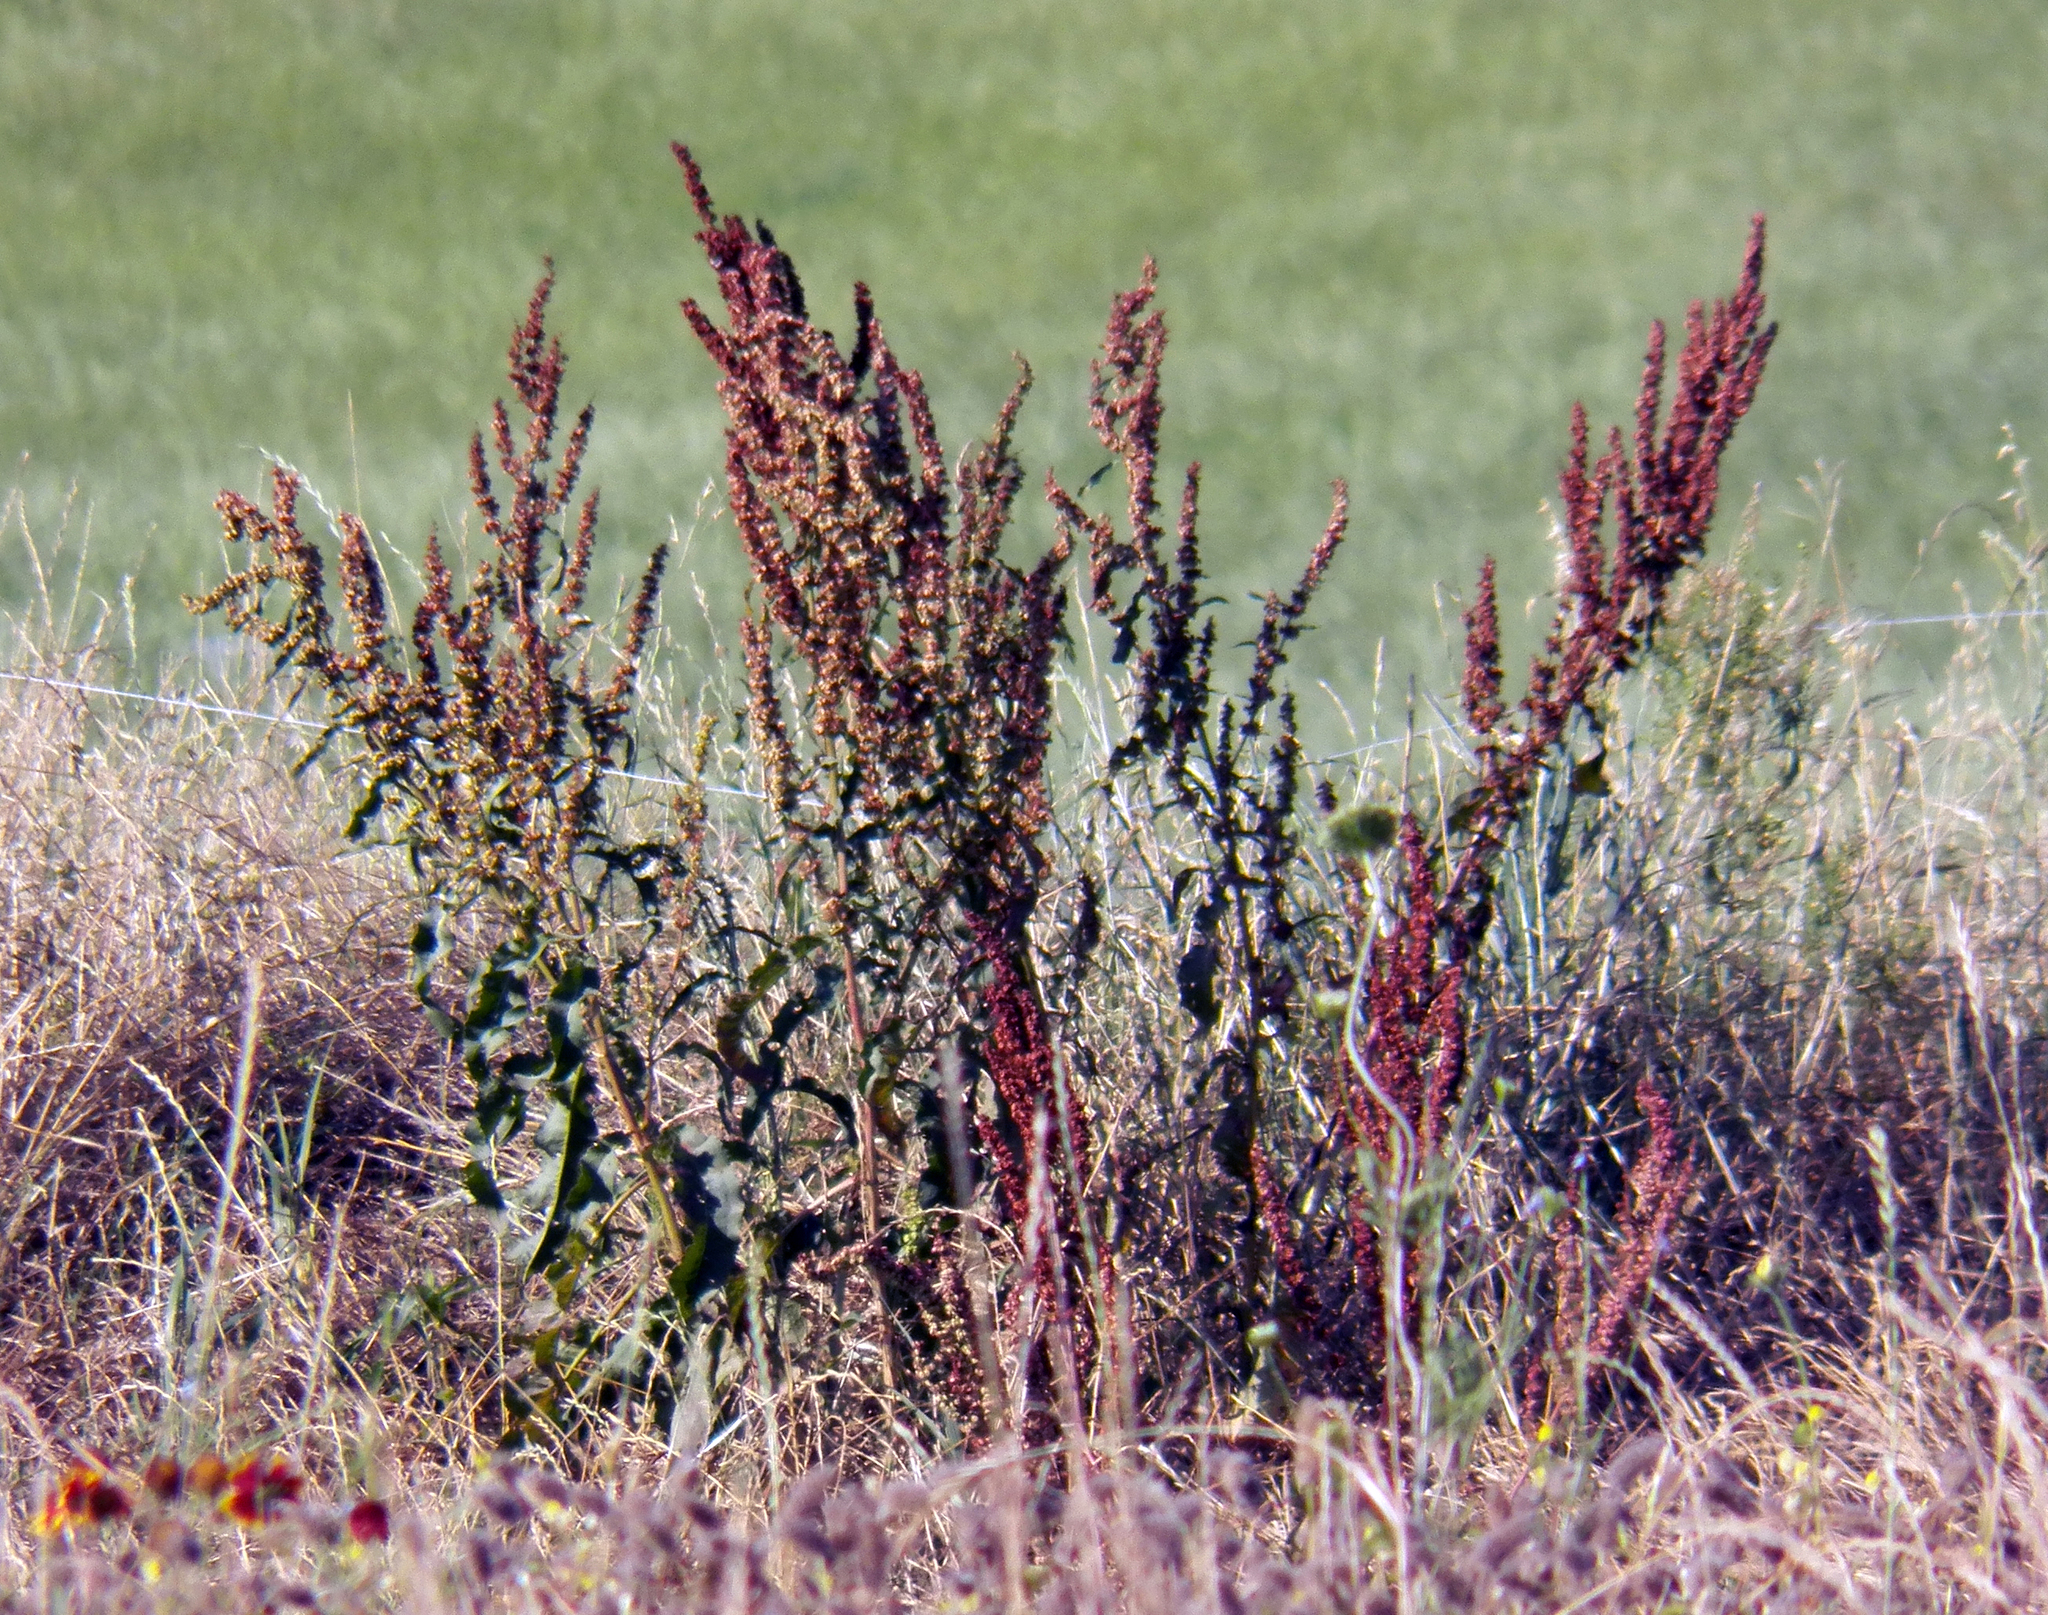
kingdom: Plantae
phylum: Tracheophyta
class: Magnoliopsida
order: Caryophyllales
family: Polygonaceae
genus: Rumex
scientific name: Rumex crispus
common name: Curled dock
